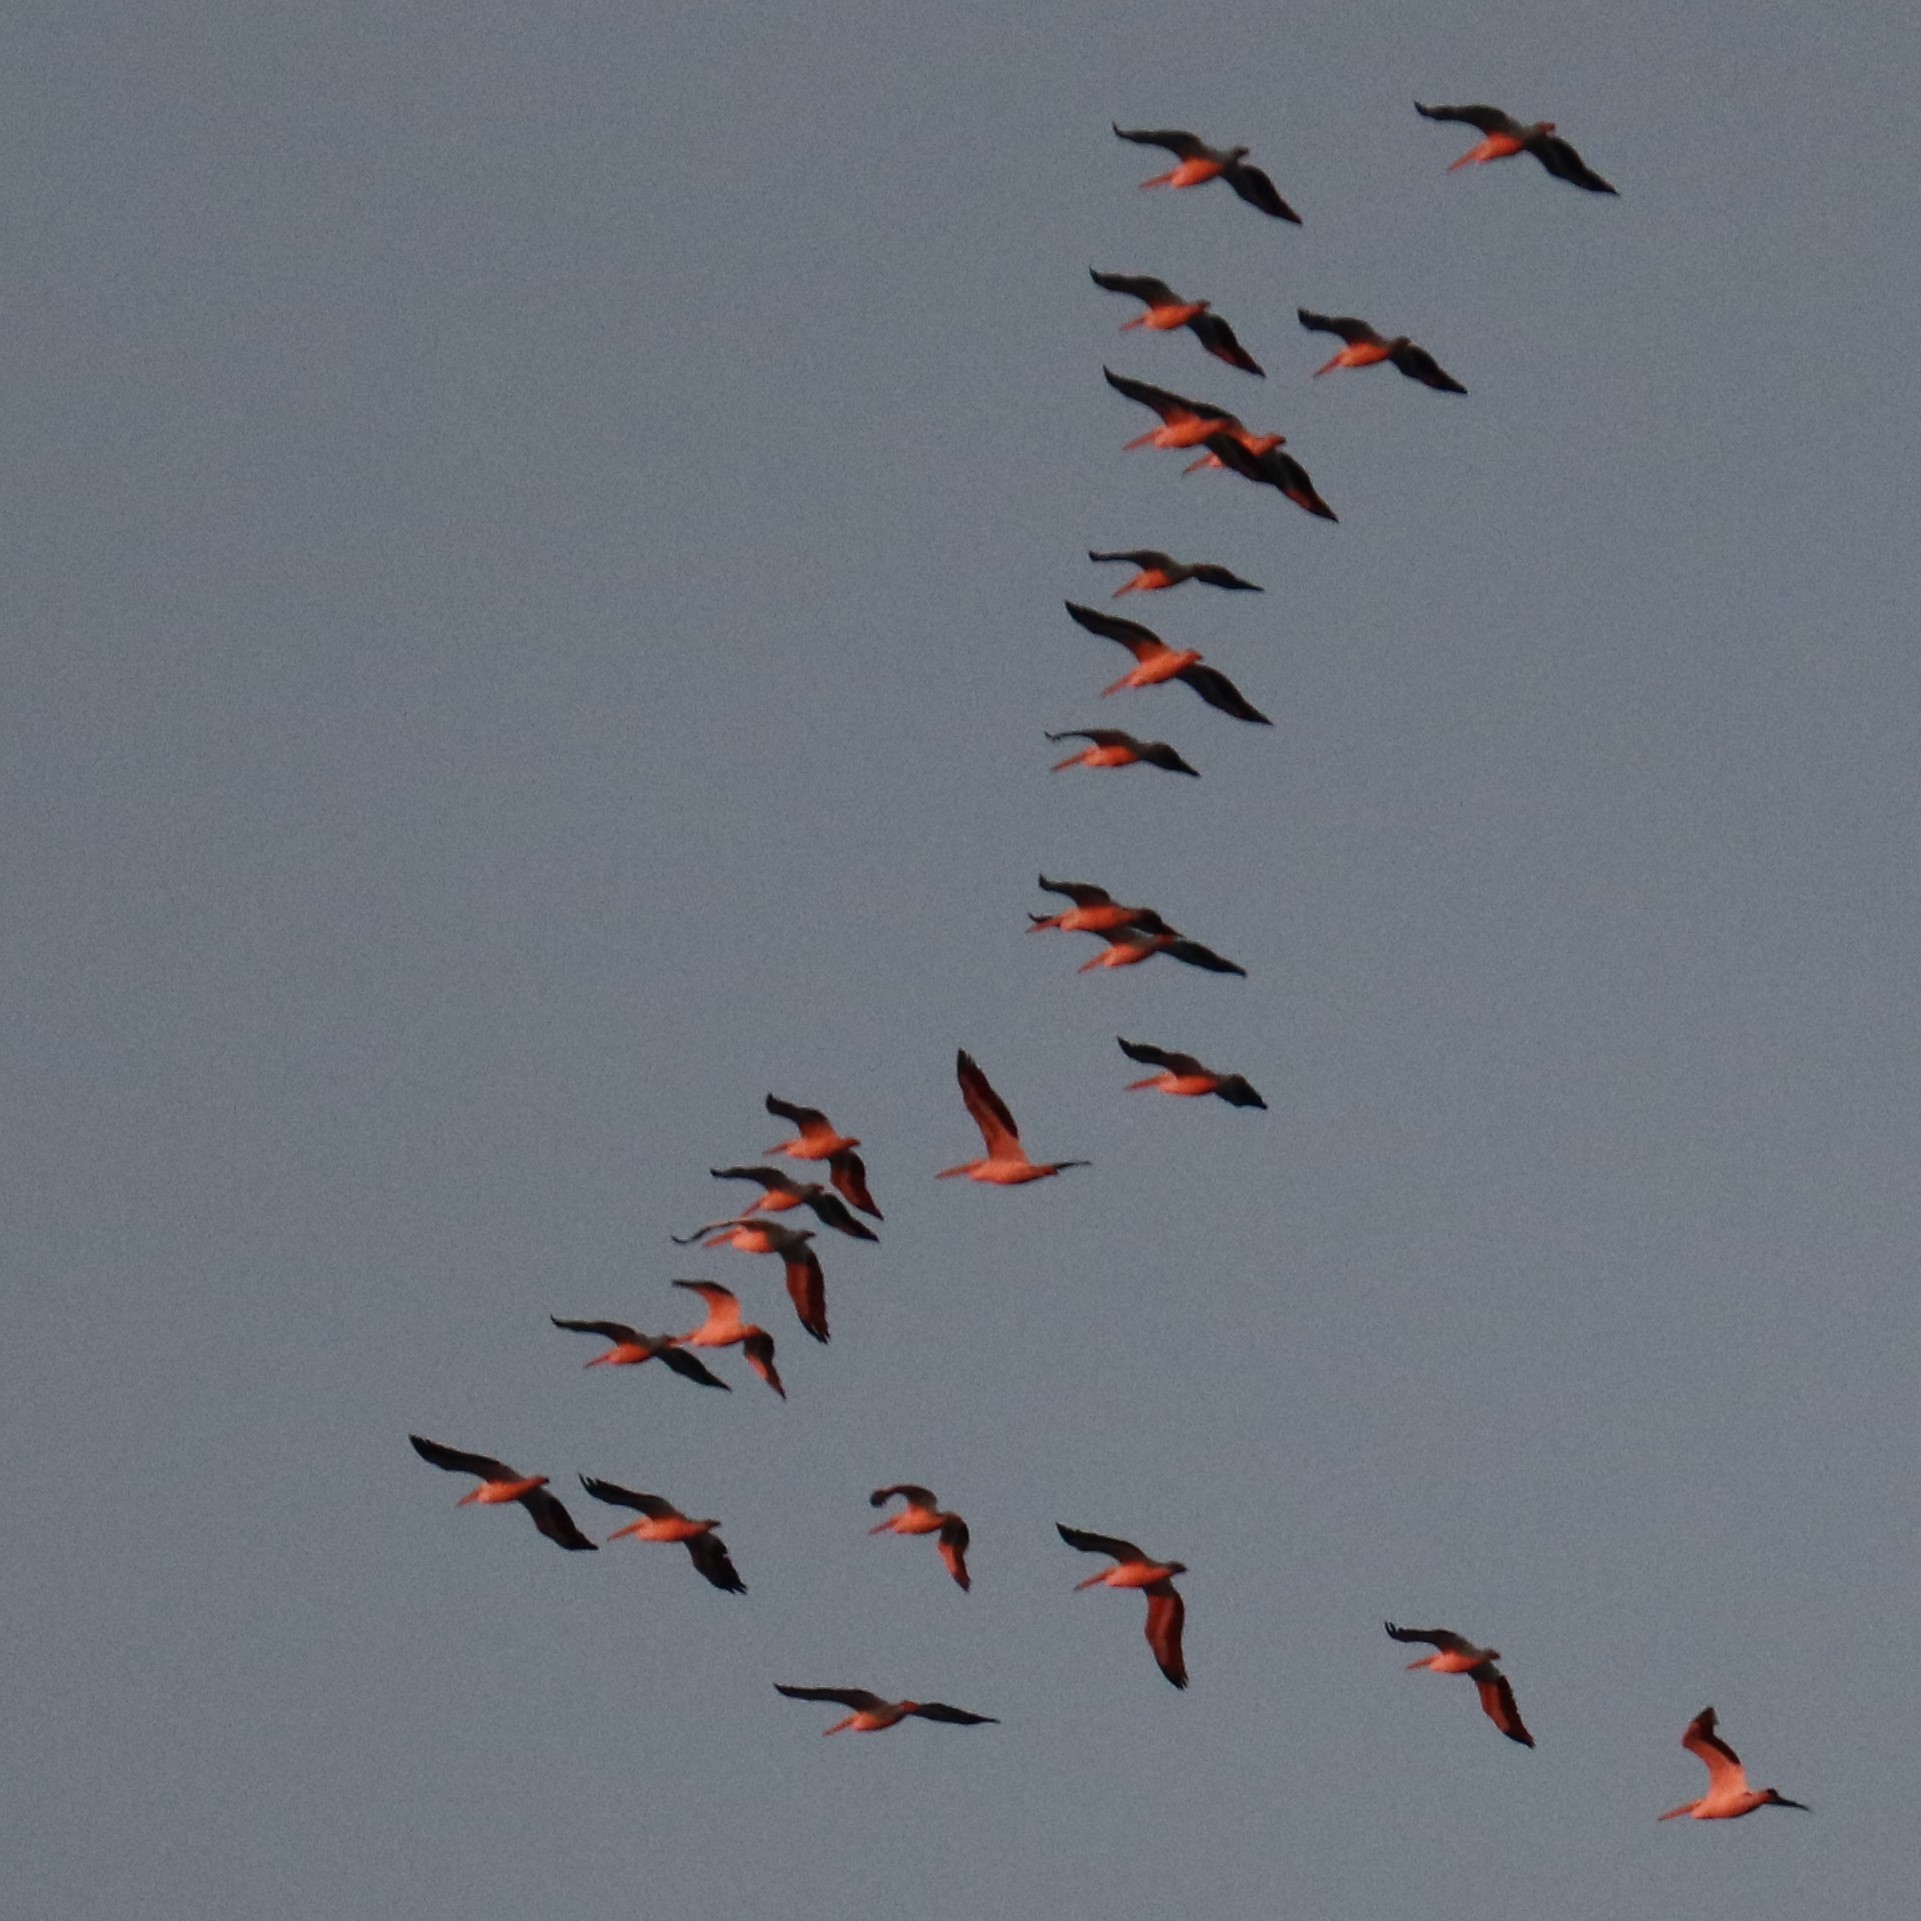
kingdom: Animalia
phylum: Chordata
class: Aves
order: Pelecaniformes
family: Pelecanidae
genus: Pelecanus
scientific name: Pelecanus erythrorhynchos
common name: American white pelican
